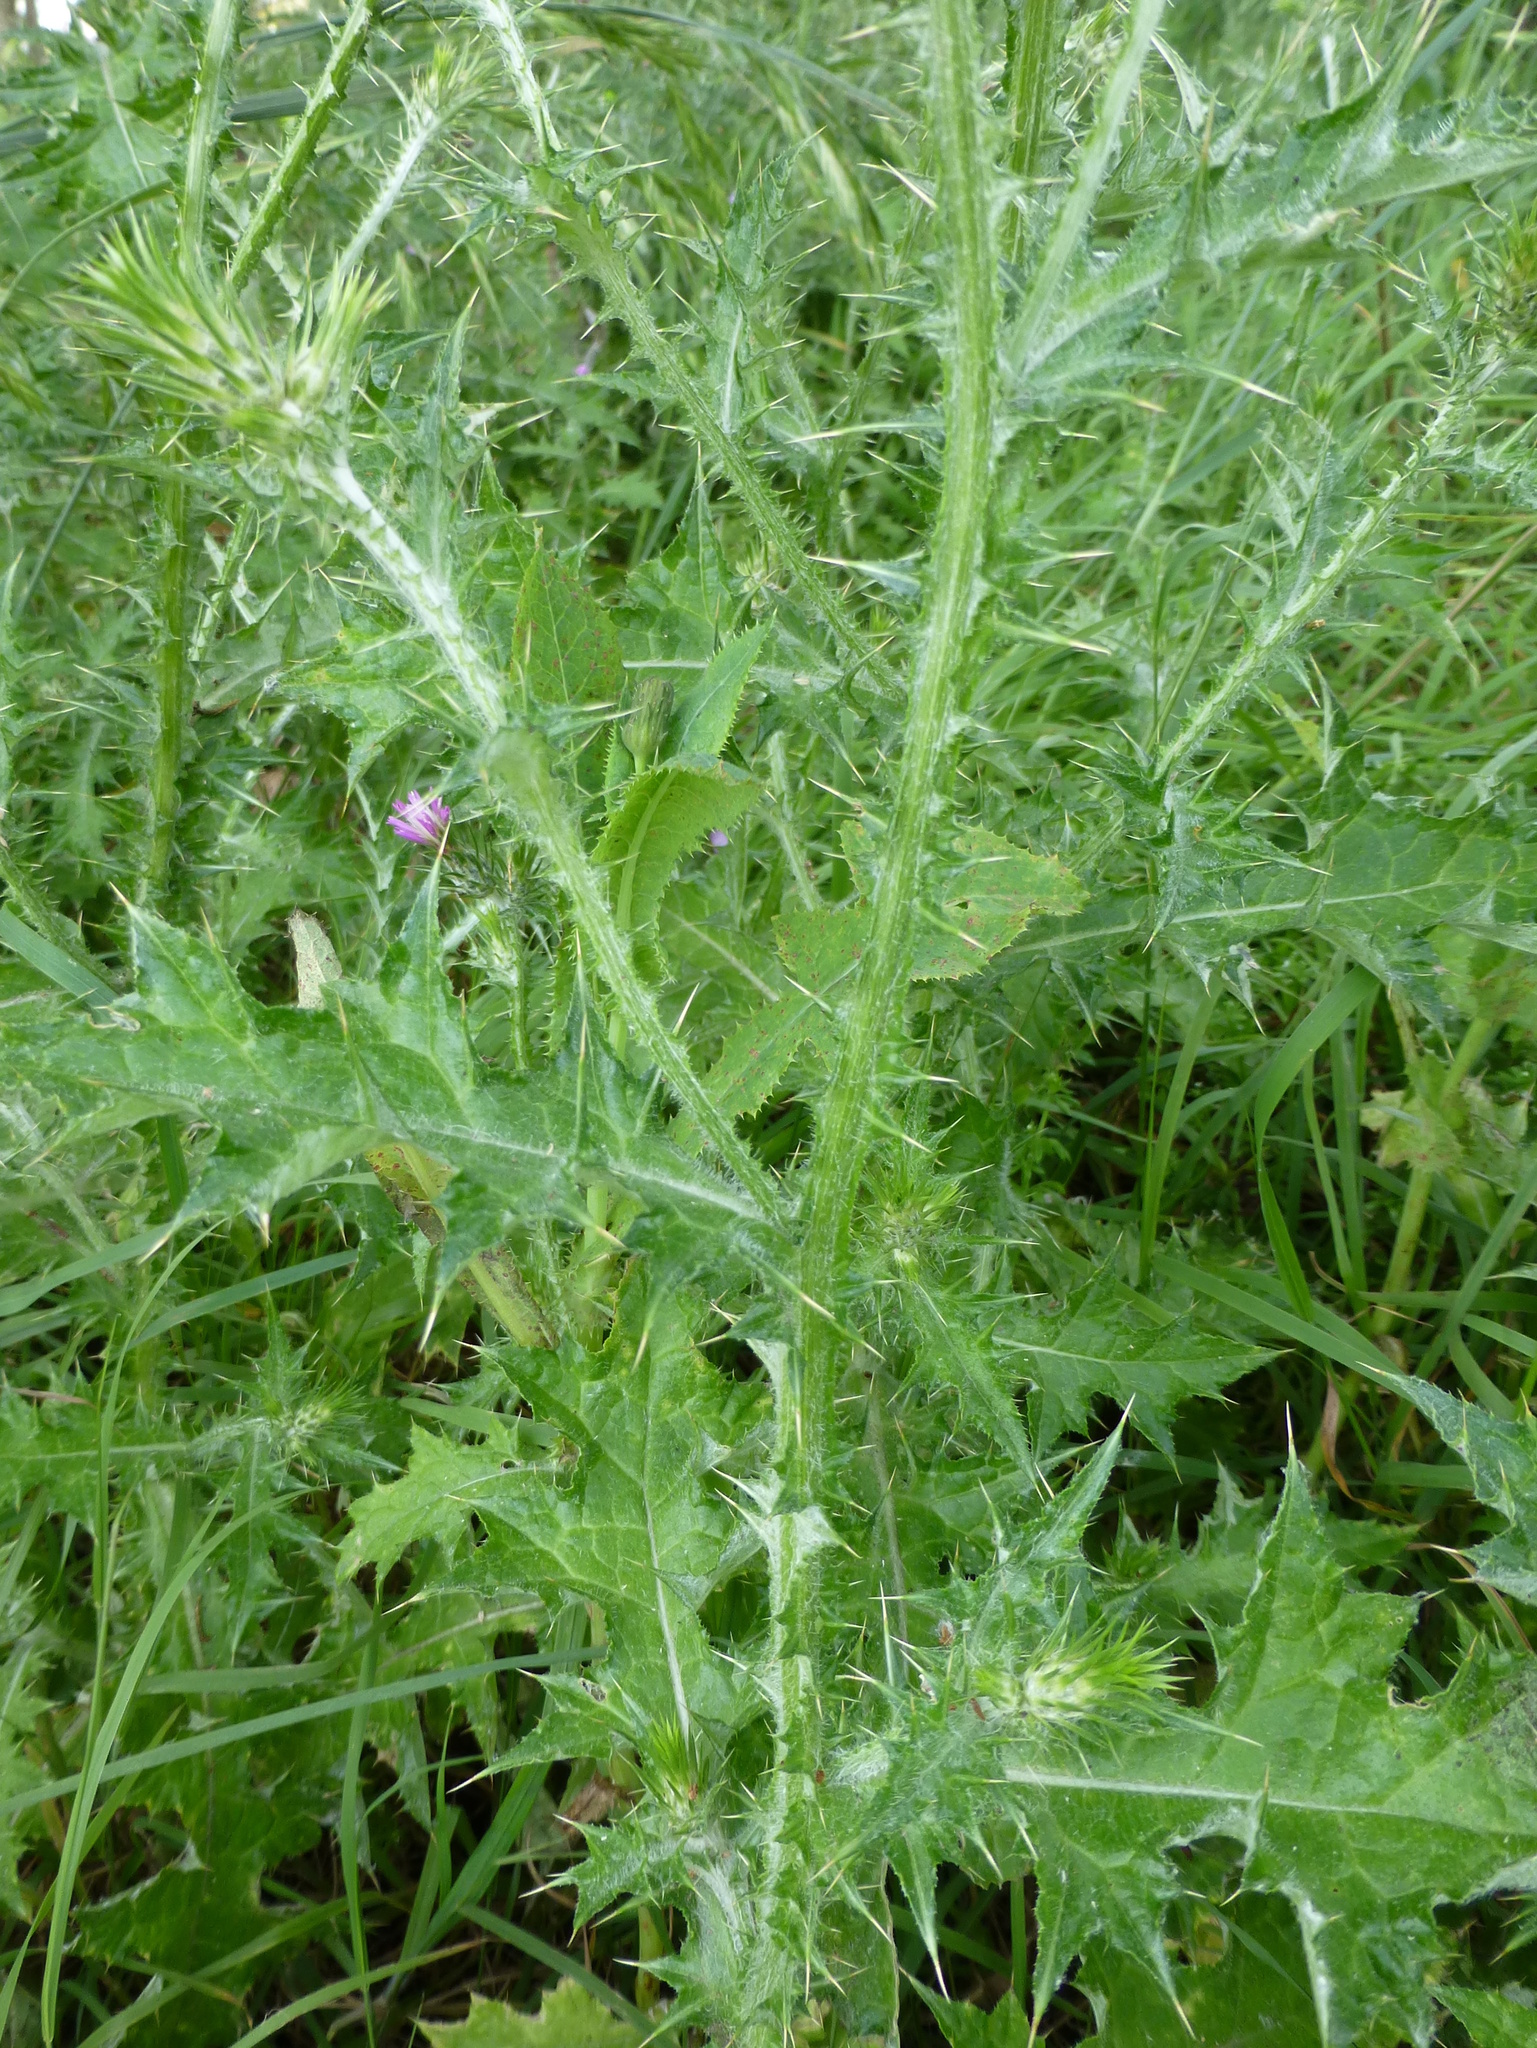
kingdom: Plantae
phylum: Tracheophyta
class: Magnoliopsida
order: Asterales
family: Asteraceae
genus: Carduus
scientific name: Carduus pycnocephalus
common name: Plymouth thistle
